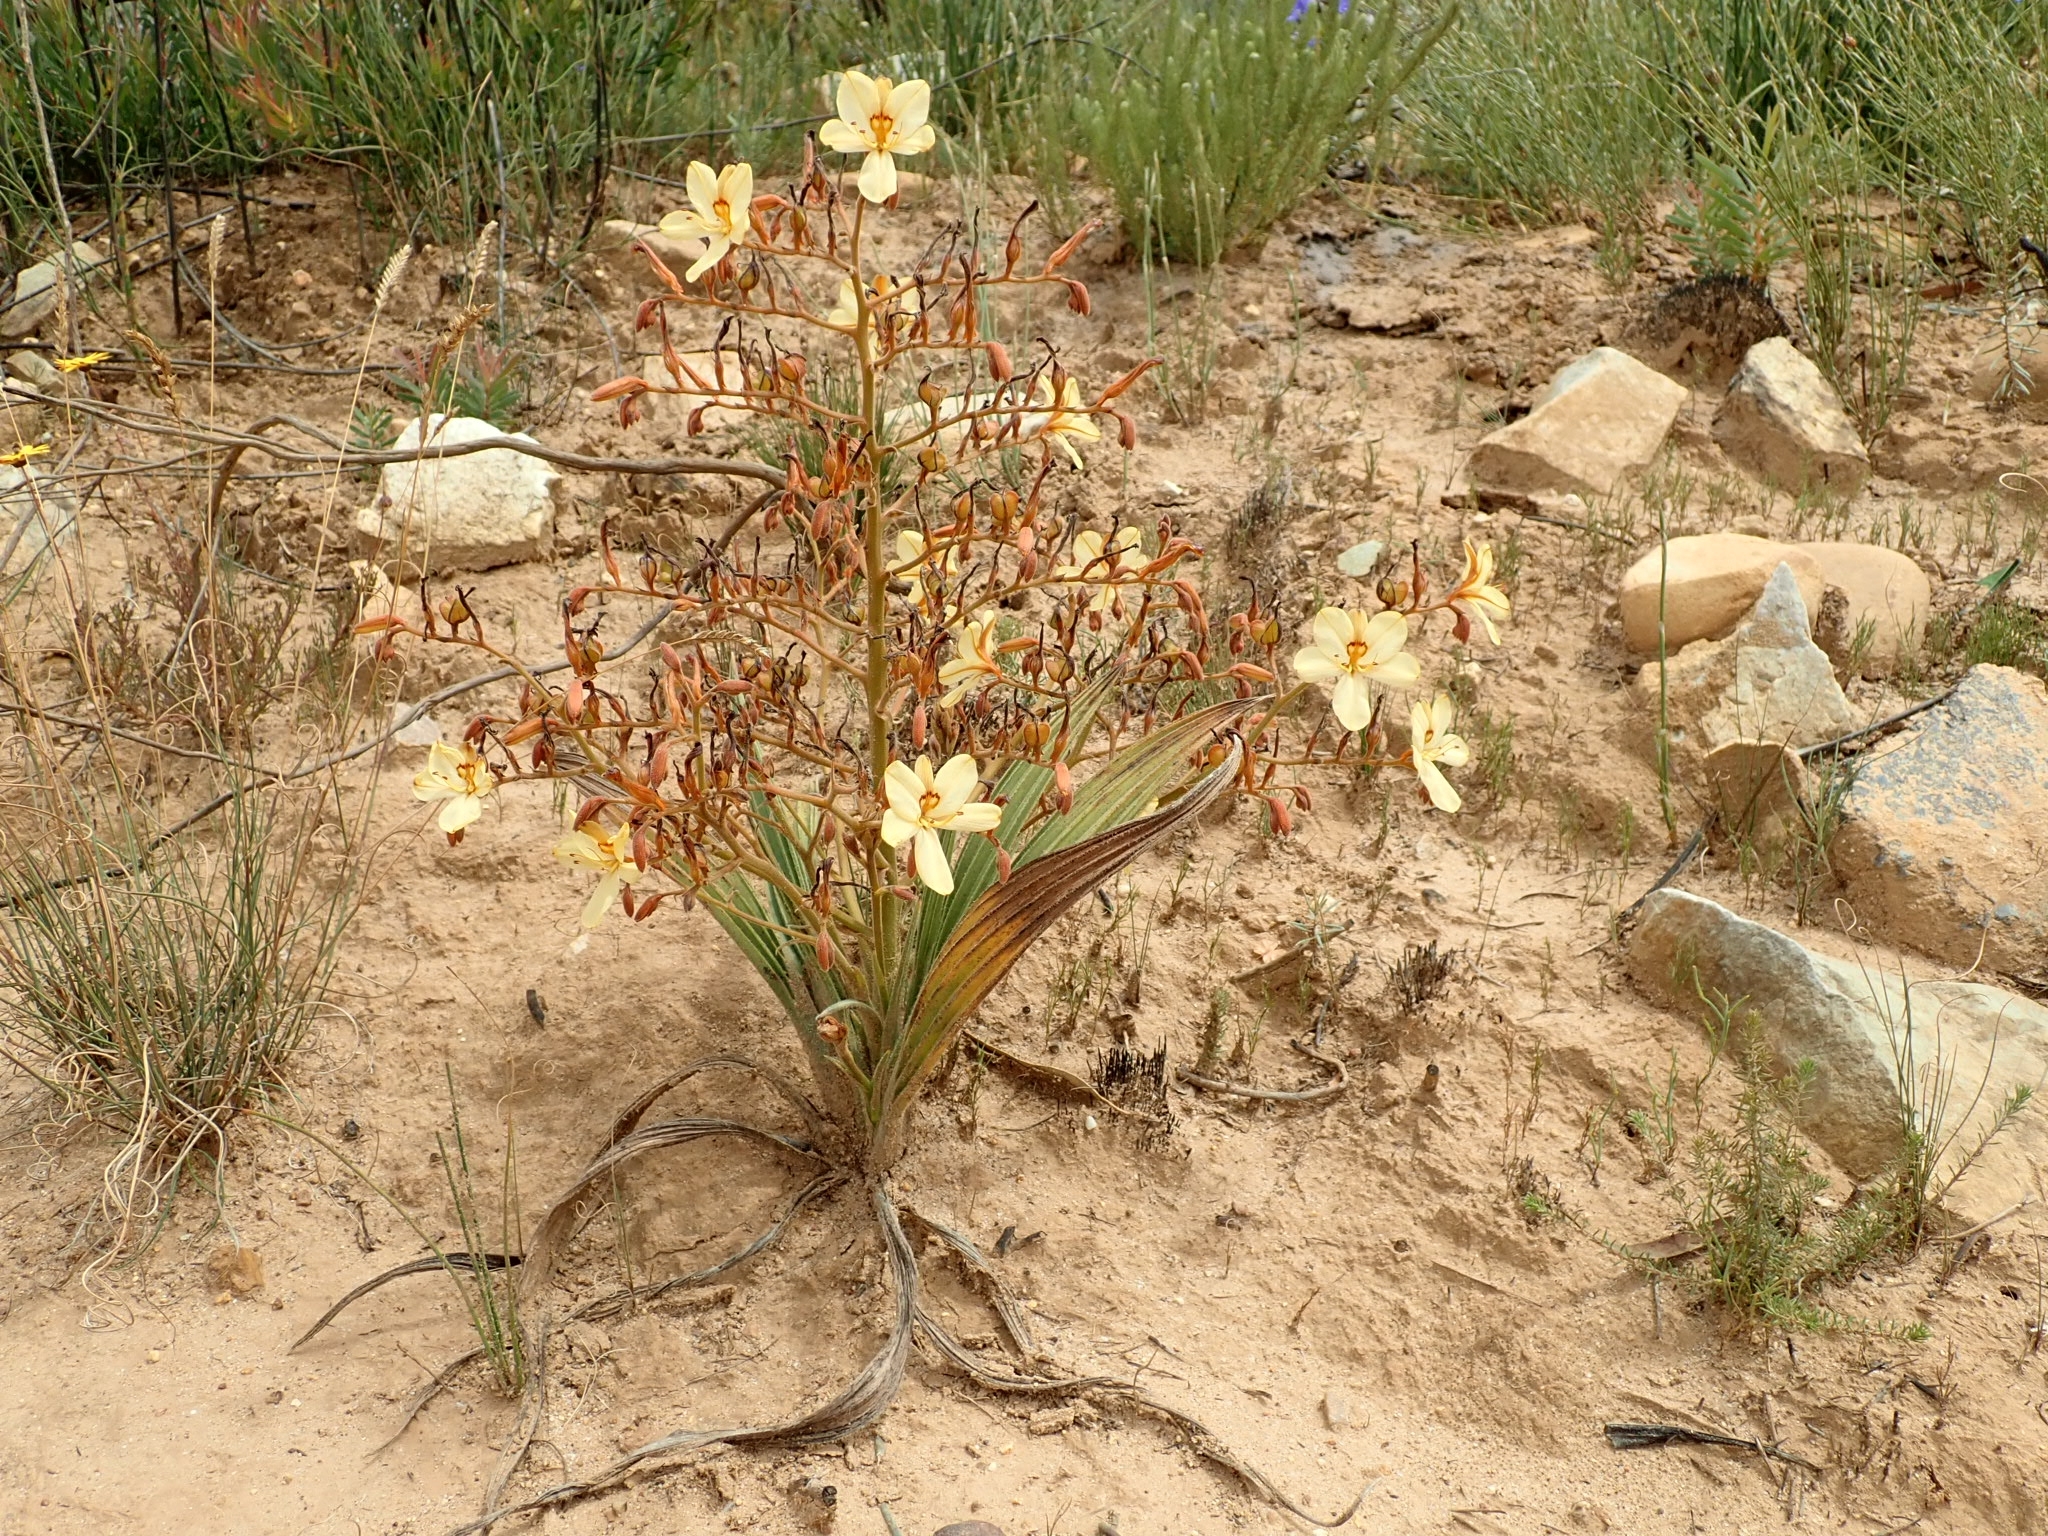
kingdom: Plantae
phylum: Tracheophyta
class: Liliopsida
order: Commelinales
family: Haemodoraceae
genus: Wachendorfia
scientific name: Wachendorfia paniculata
